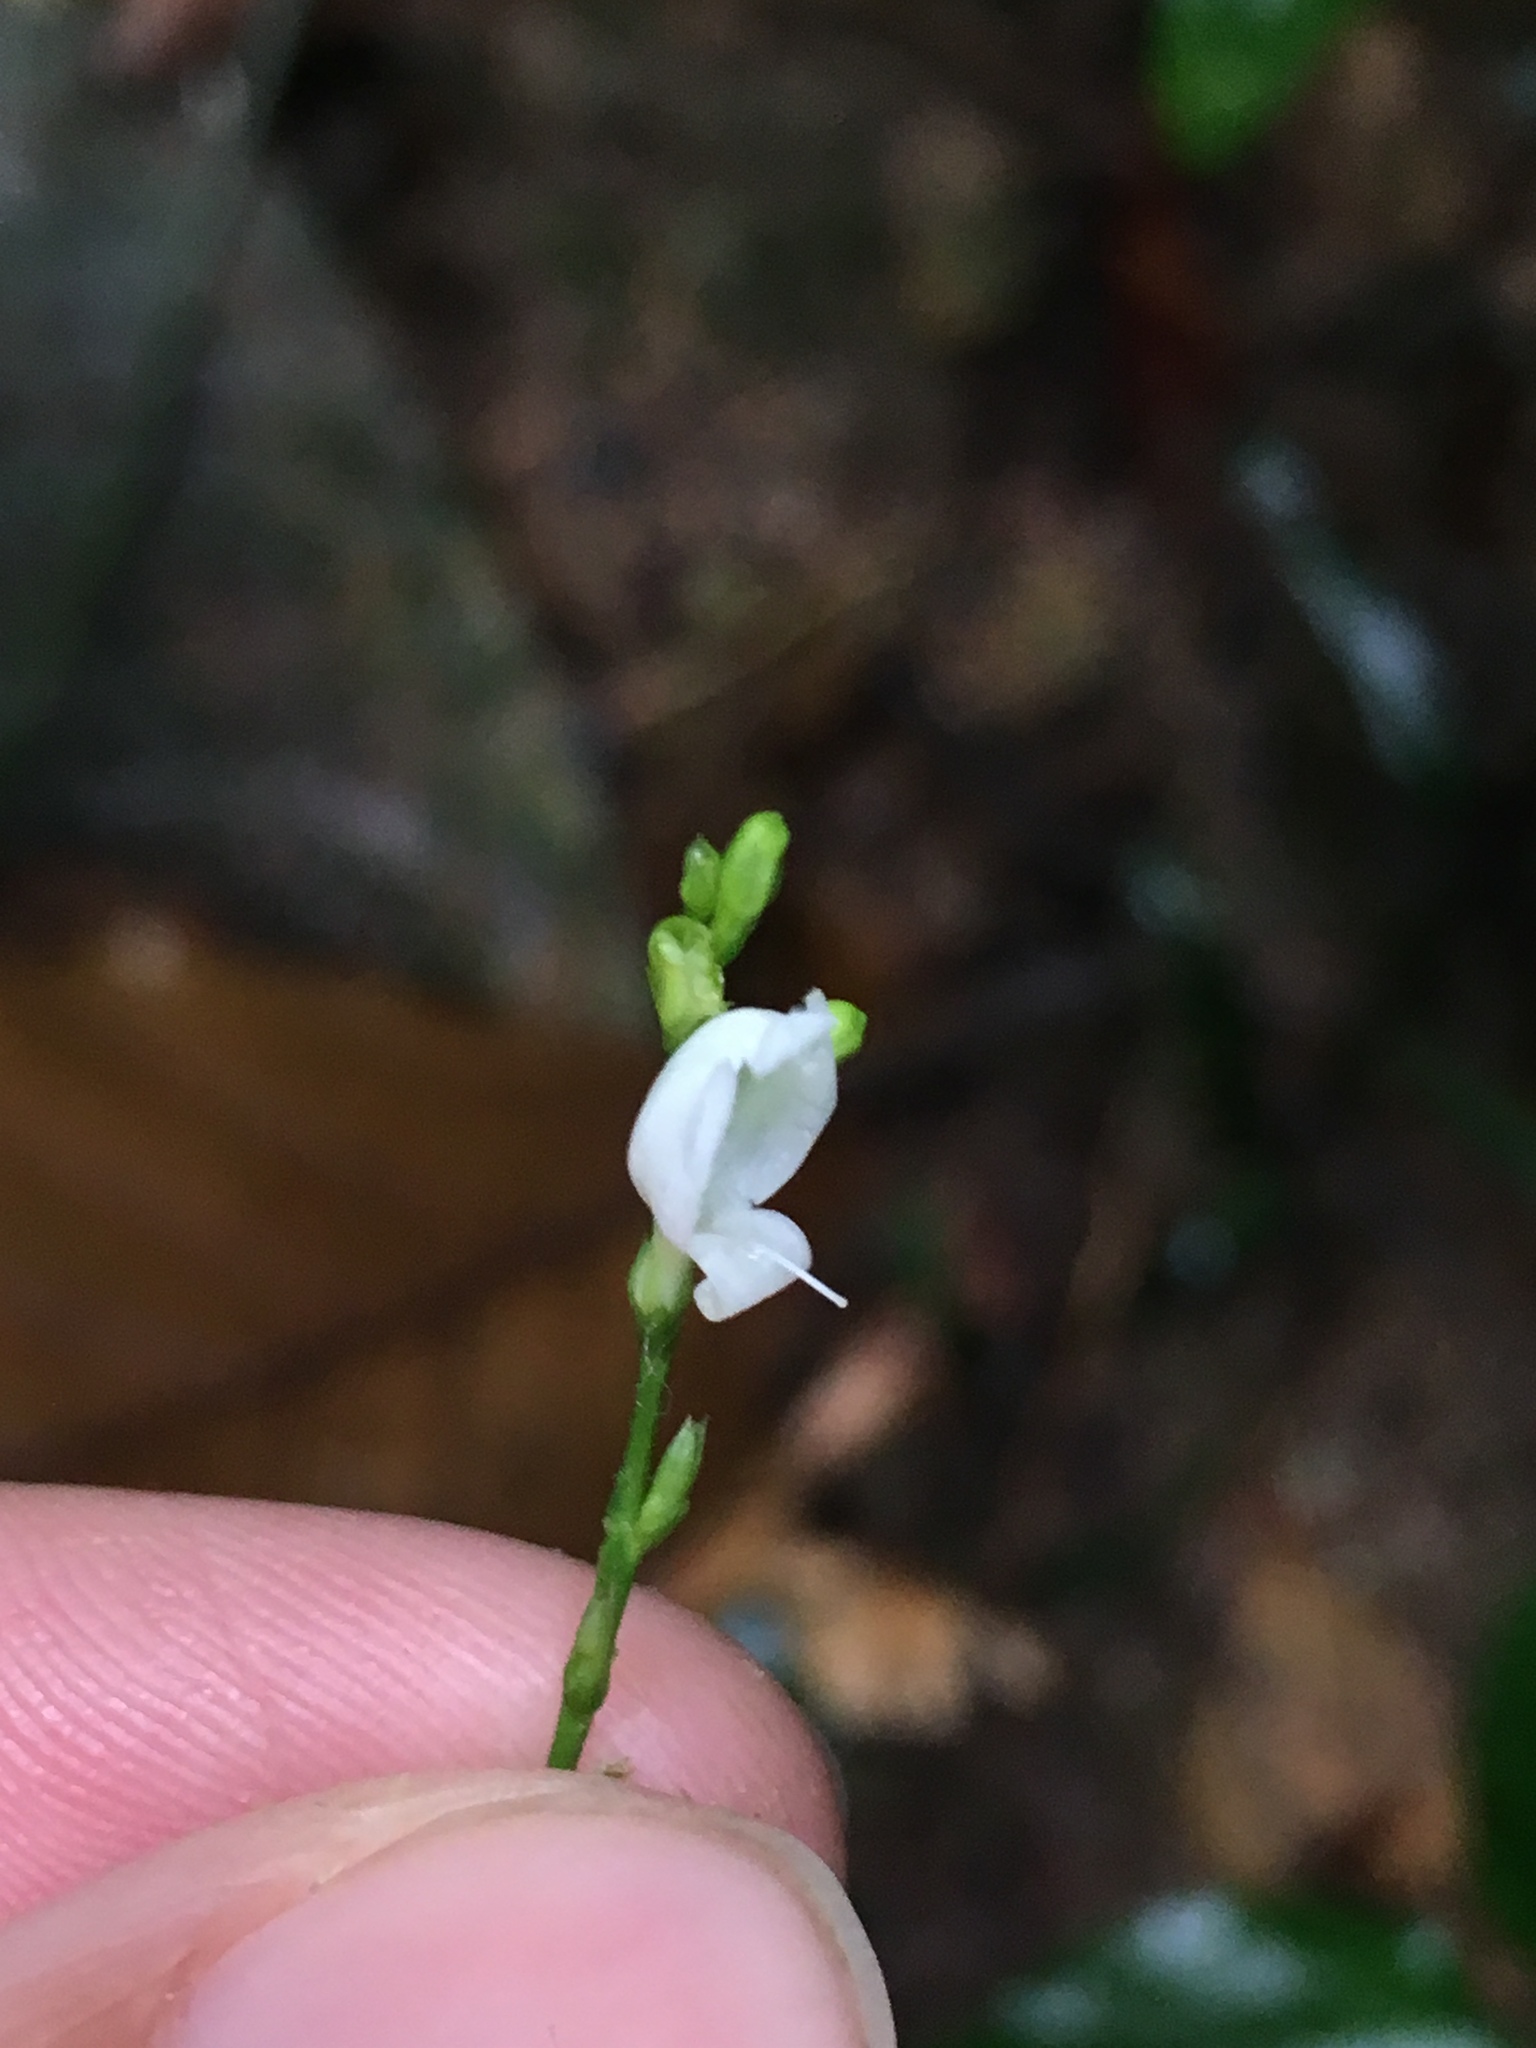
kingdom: Plantae
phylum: Tracheophyta
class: Magnoliopsida
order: Lamiales
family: Acanthaceae
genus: Leptostachya
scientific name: Leptostachya wallichii
